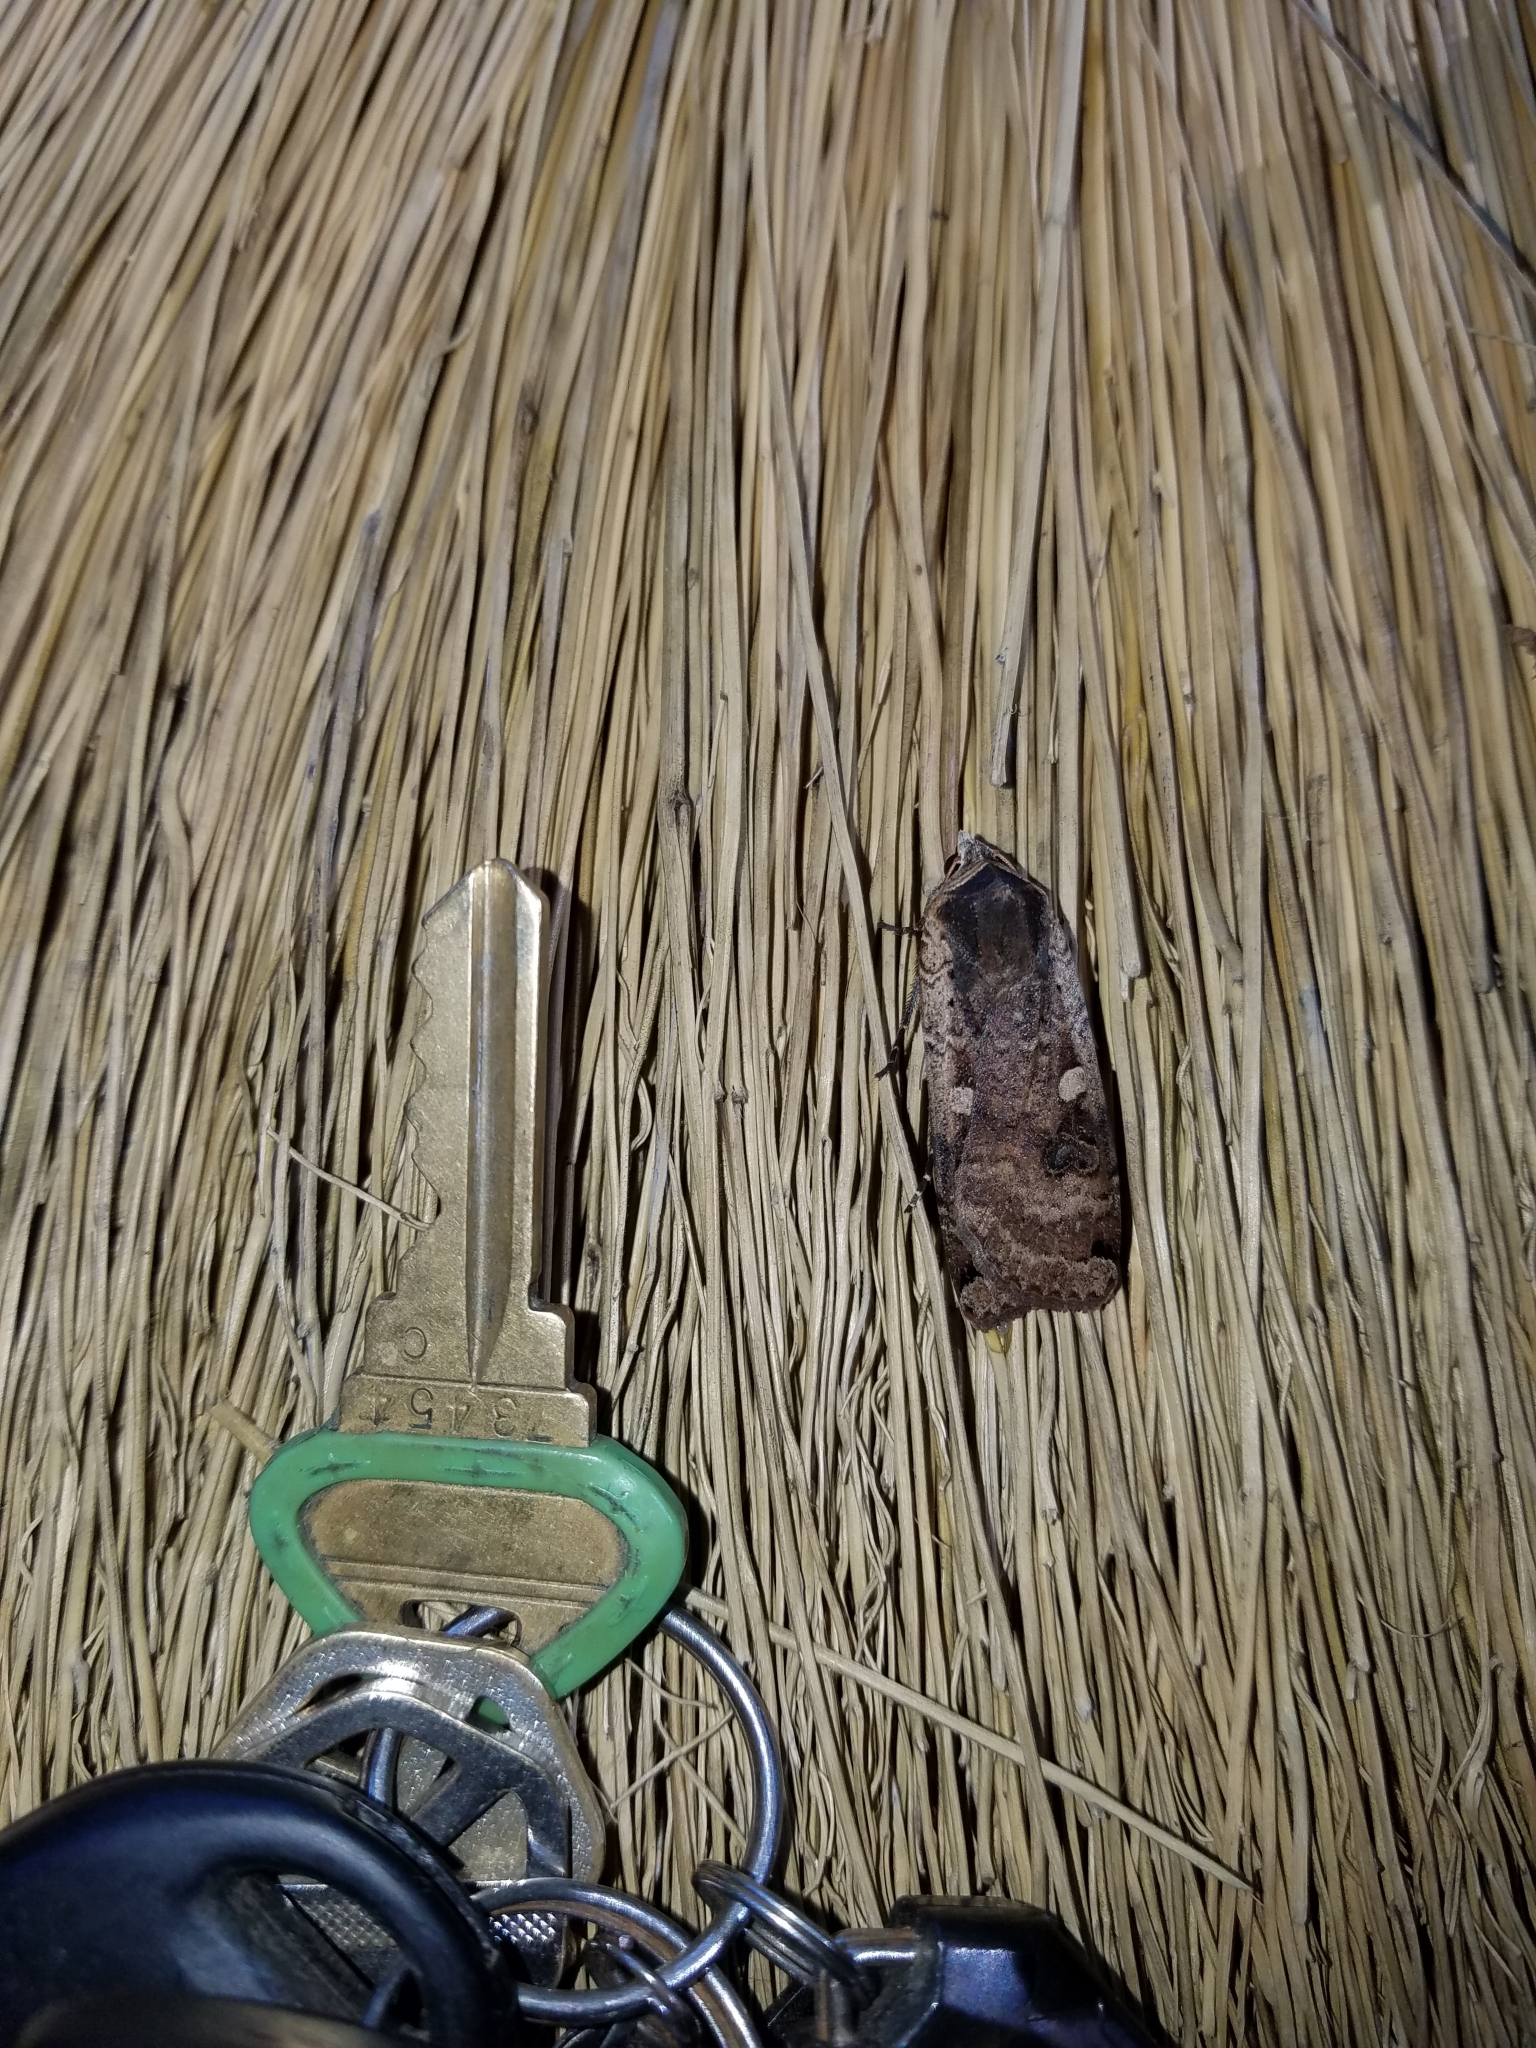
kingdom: Animalia
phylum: Arthropoda
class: Insecta
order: Lepidoptera
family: Noctuidae
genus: Noctua
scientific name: Noctua pronuba
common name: Large yellow underwing
